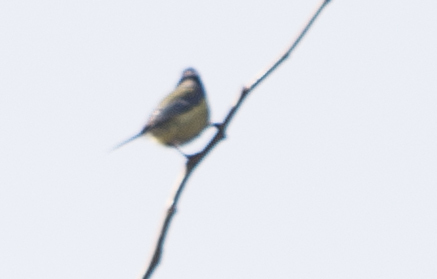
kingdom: Animalia
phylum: Chordata
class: Aves
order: Passeriformes
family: Paridae
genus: Cyanistes
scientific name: Cyanistes caeruleus
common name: Eurasian blue tit
